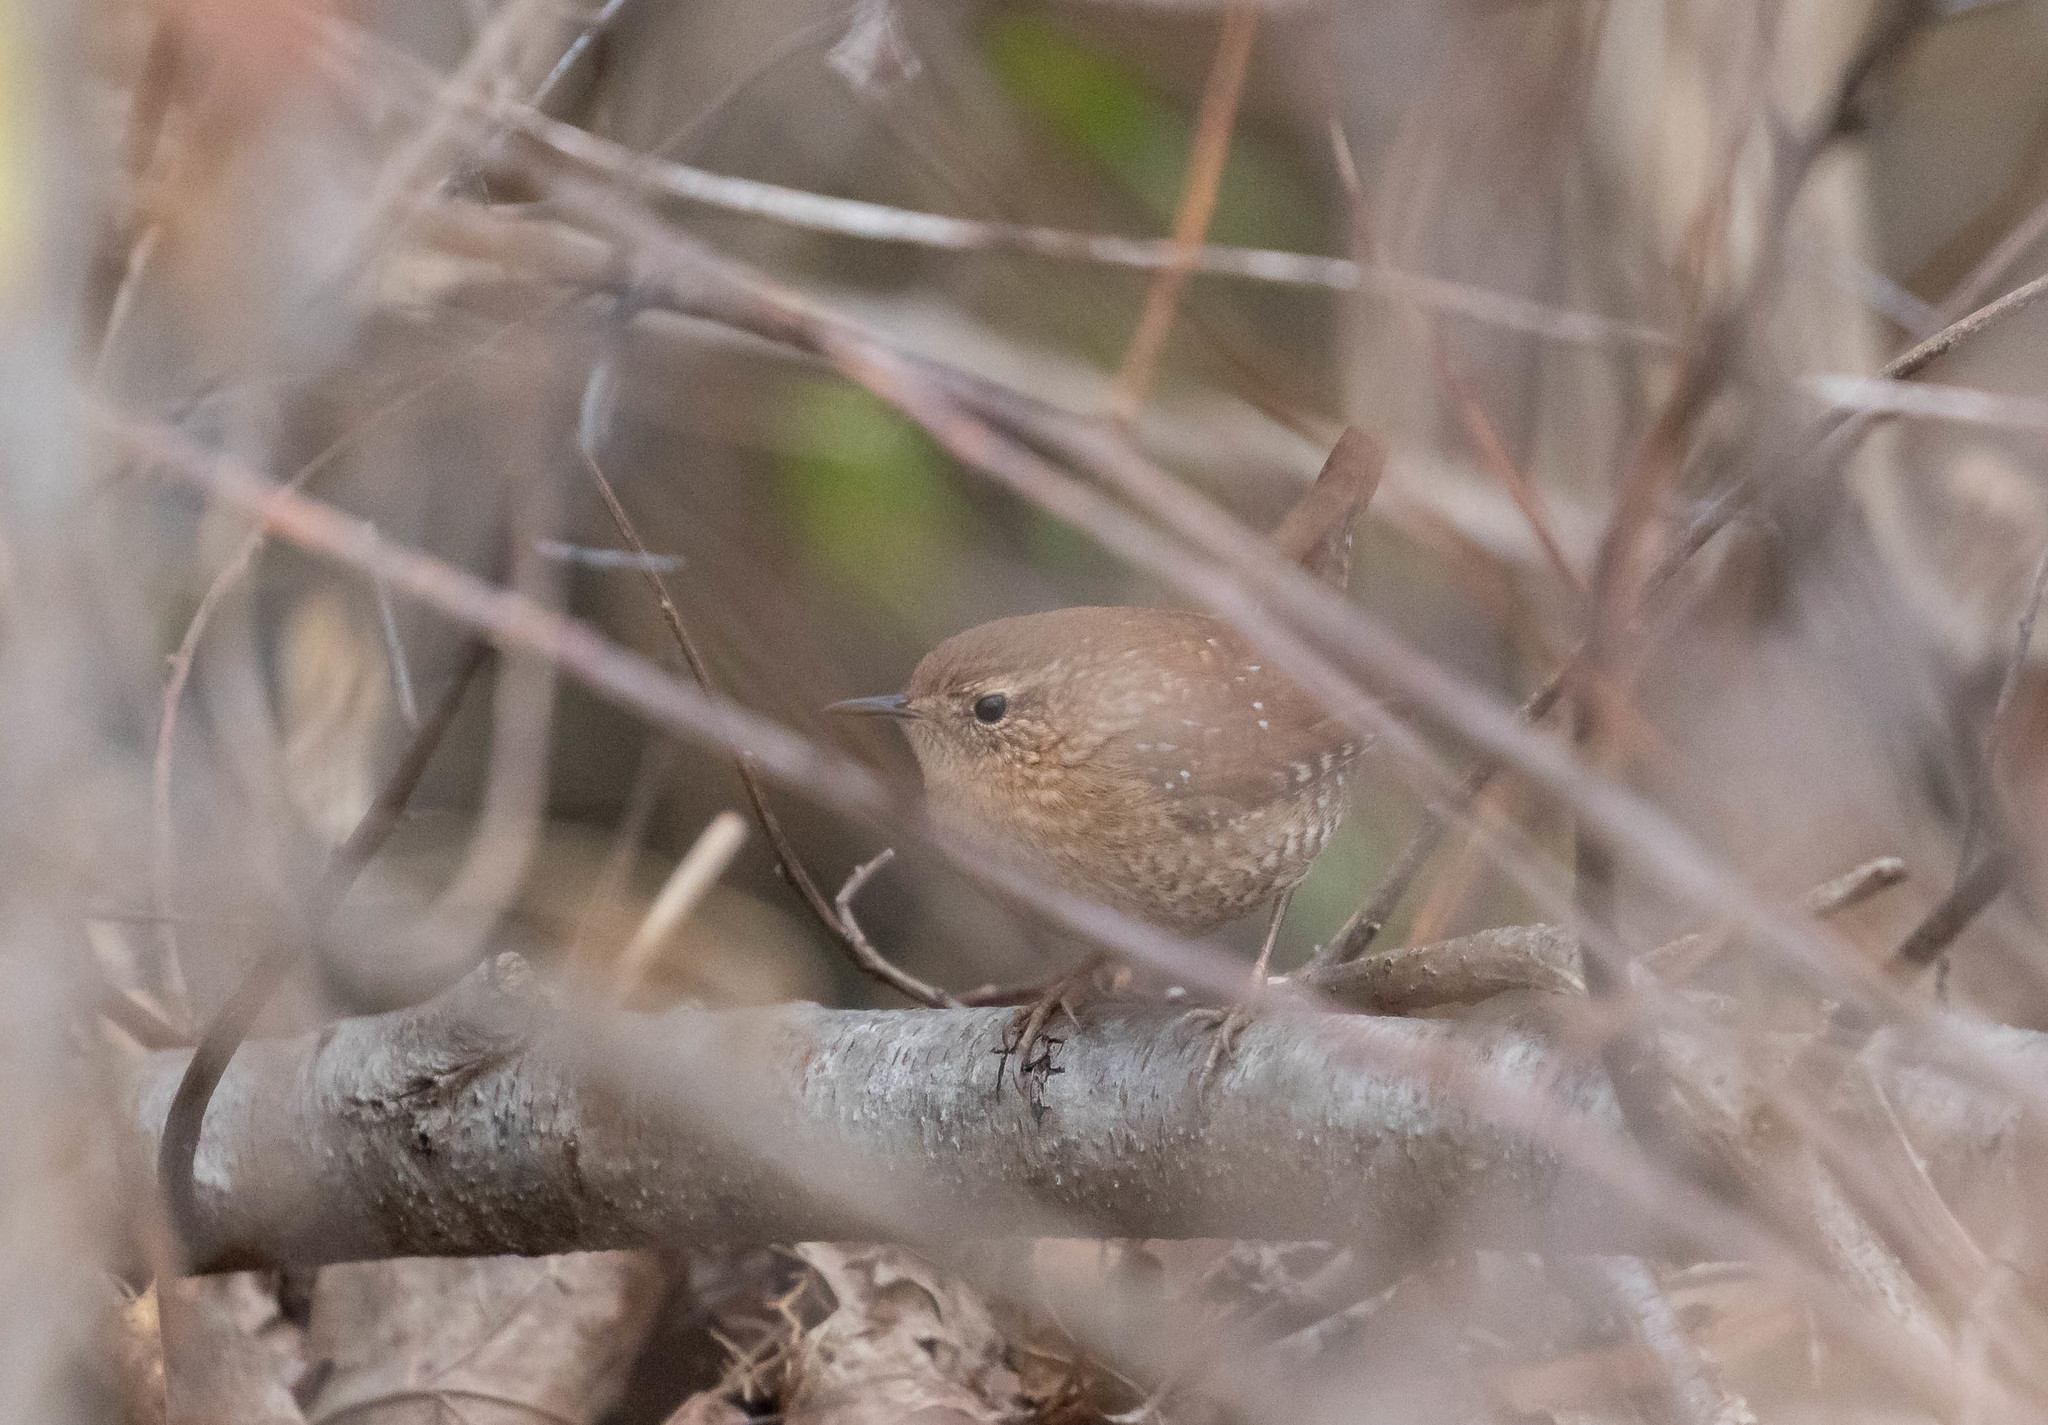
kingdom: Animalia
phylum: Chordata
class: Aves
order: Passeriformes
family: Troglodytidae
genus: Troglodytes
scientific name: Troglodytes hiemalis
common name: Winter wren
